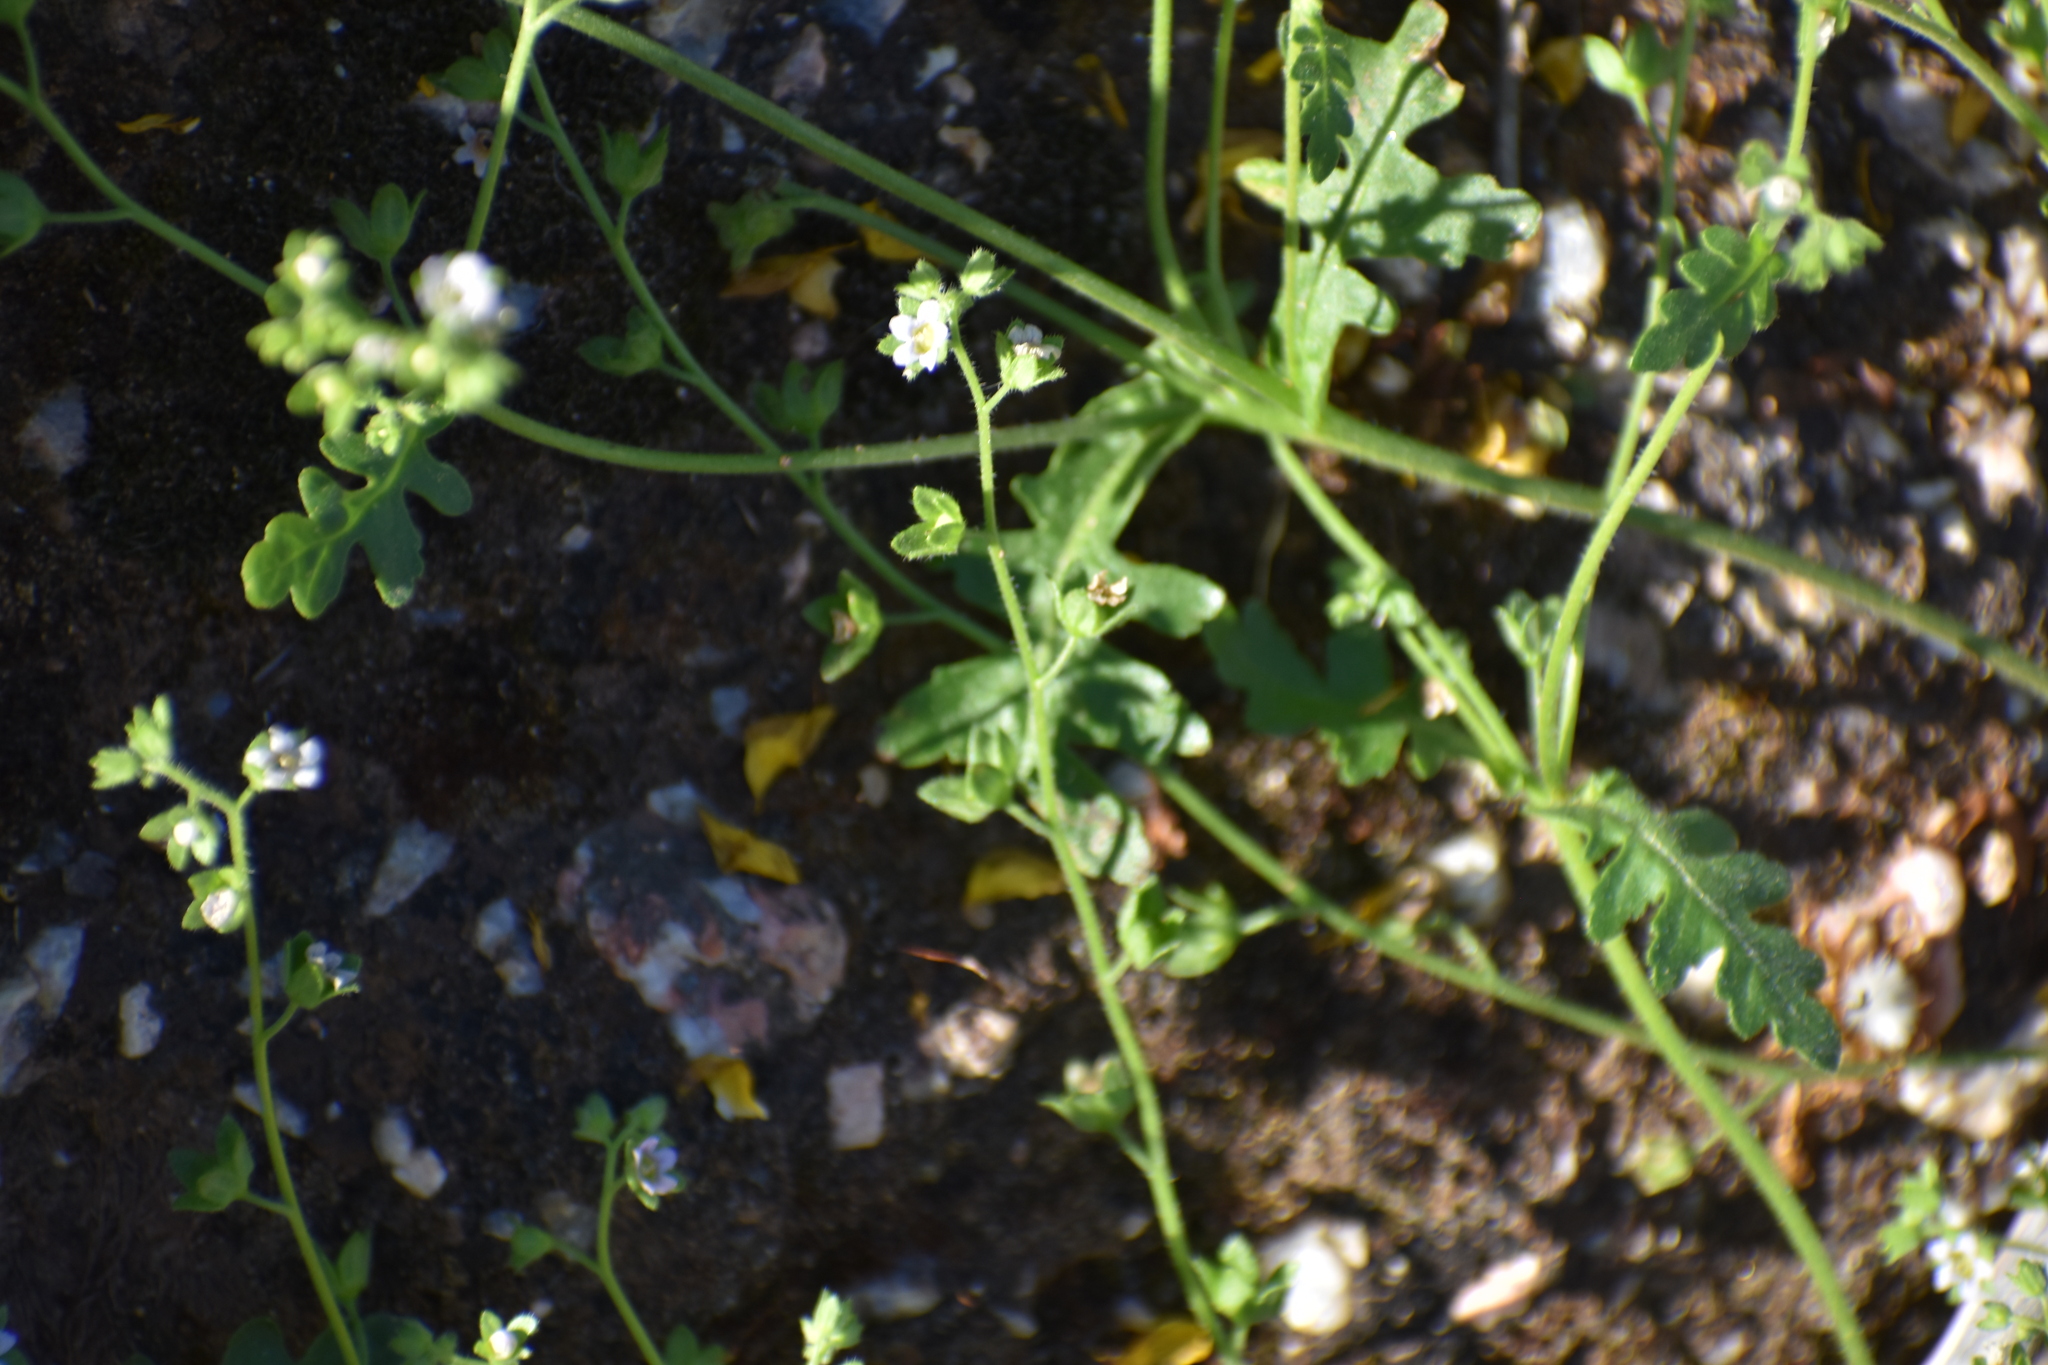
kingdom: Plantae
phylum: Tracheophyta
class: Magnoliopsida
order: Boraginales
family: Hydrophyllaceae
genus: Eucrypta
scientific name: Eucrypta chrysanthemifolia
